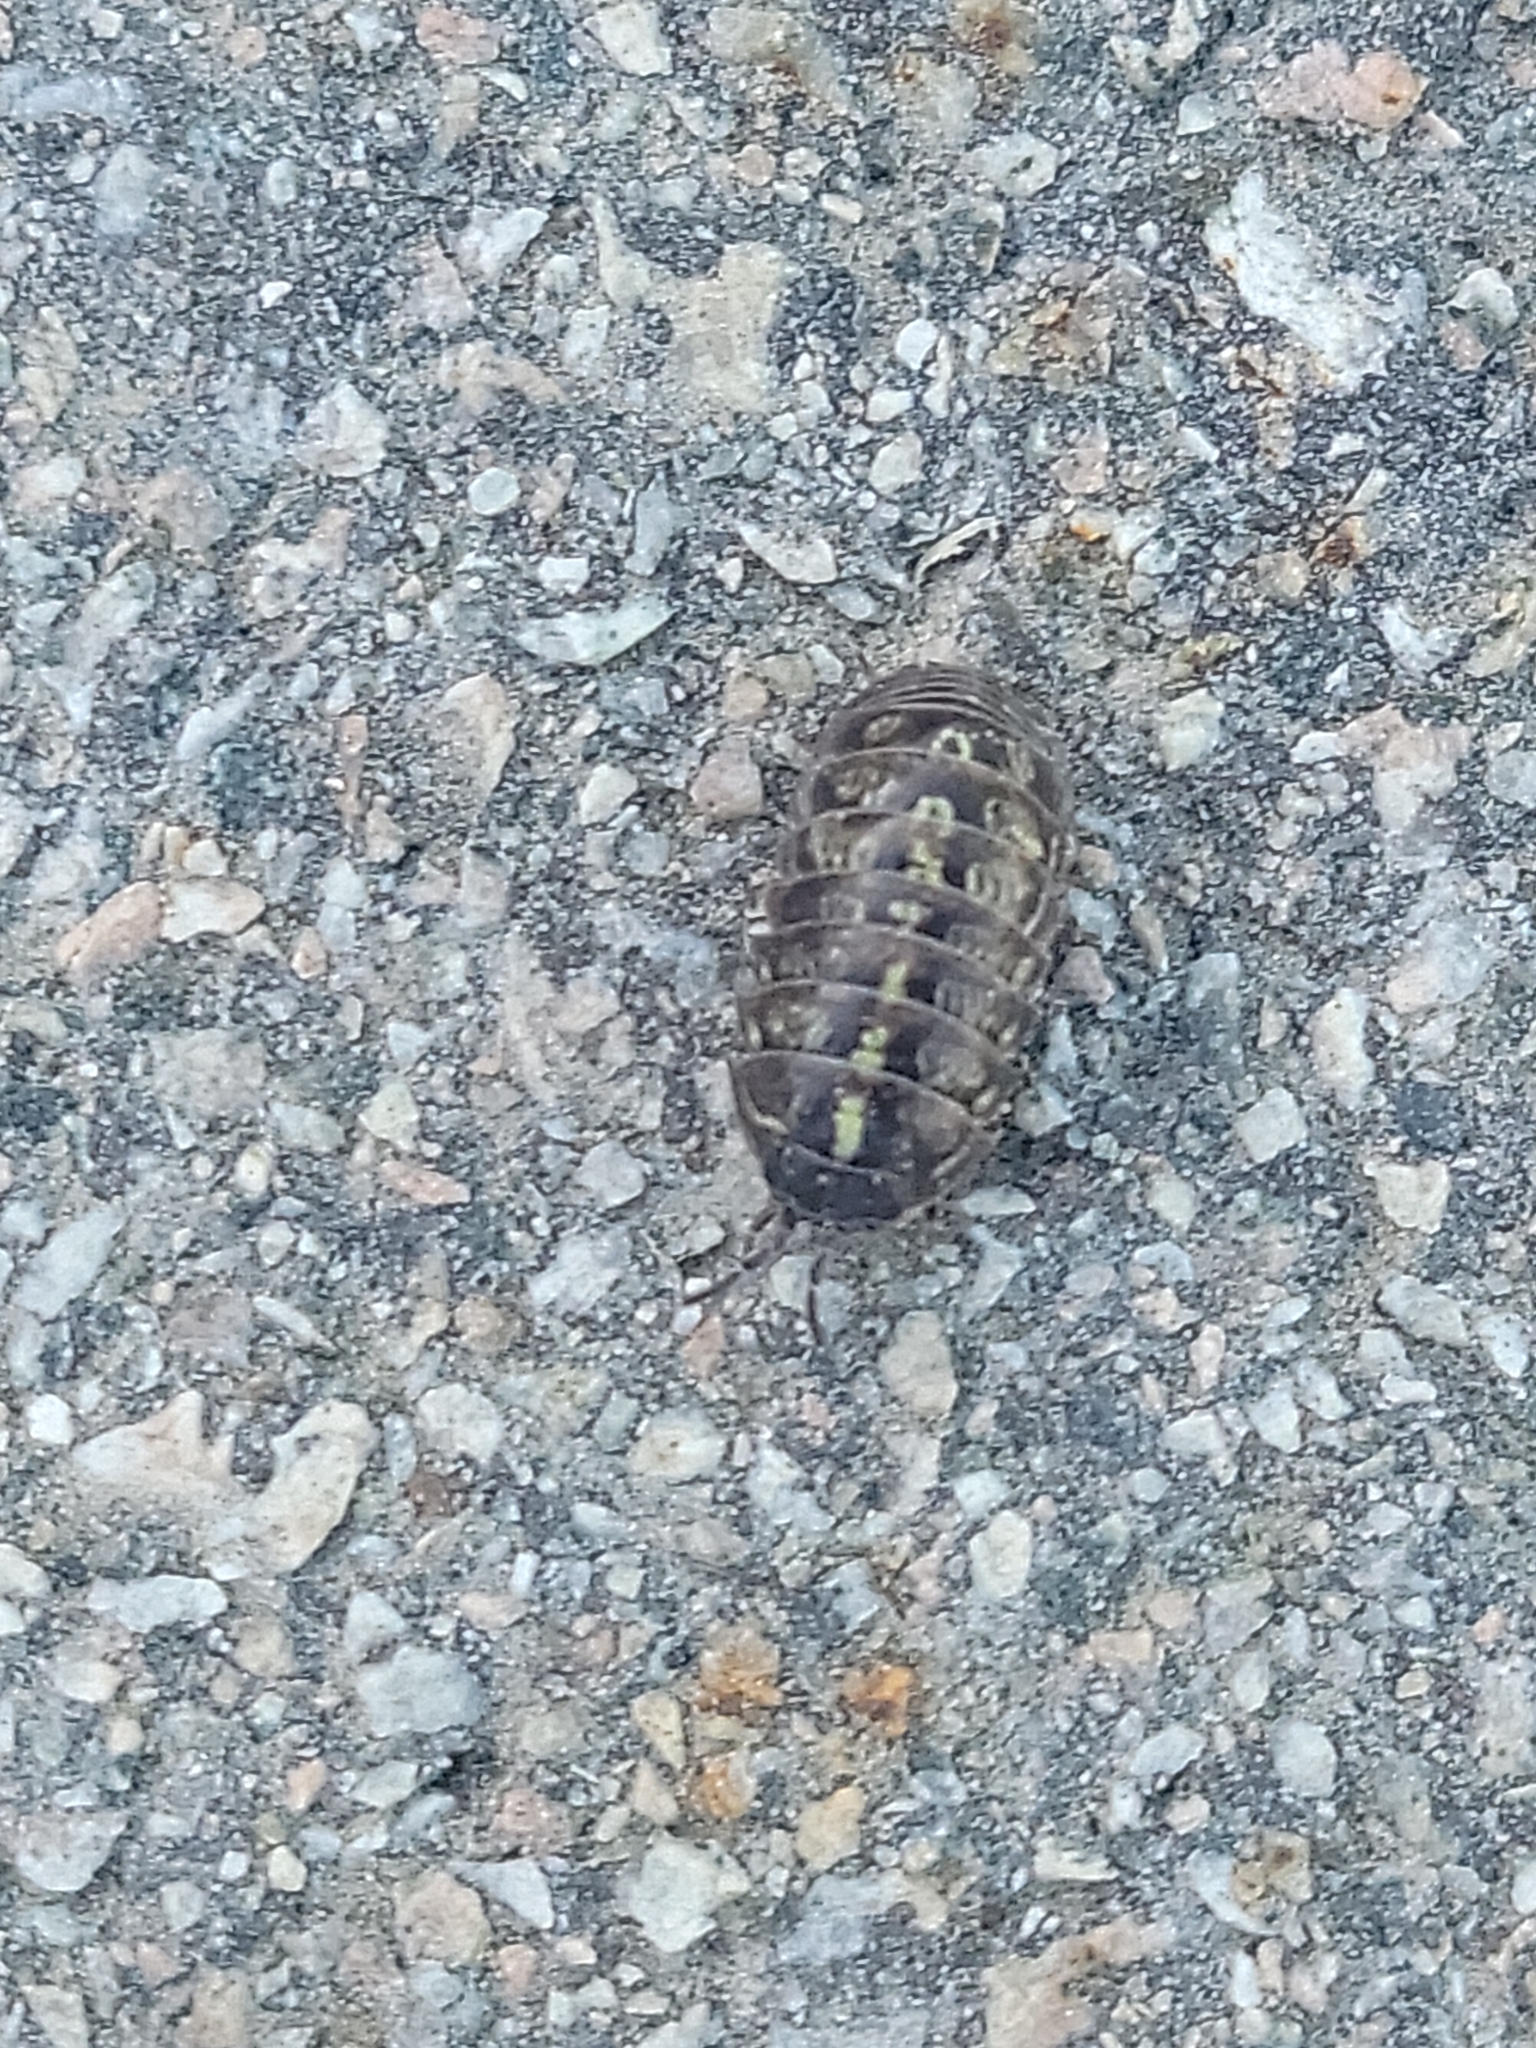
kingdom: Animalia
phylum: Arthropoda
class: Malacostraca
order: Isopoda
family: Armadillidiidae
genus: Armadillidium
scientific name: Armadillidium vulgare
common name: Common pill woodlouse
